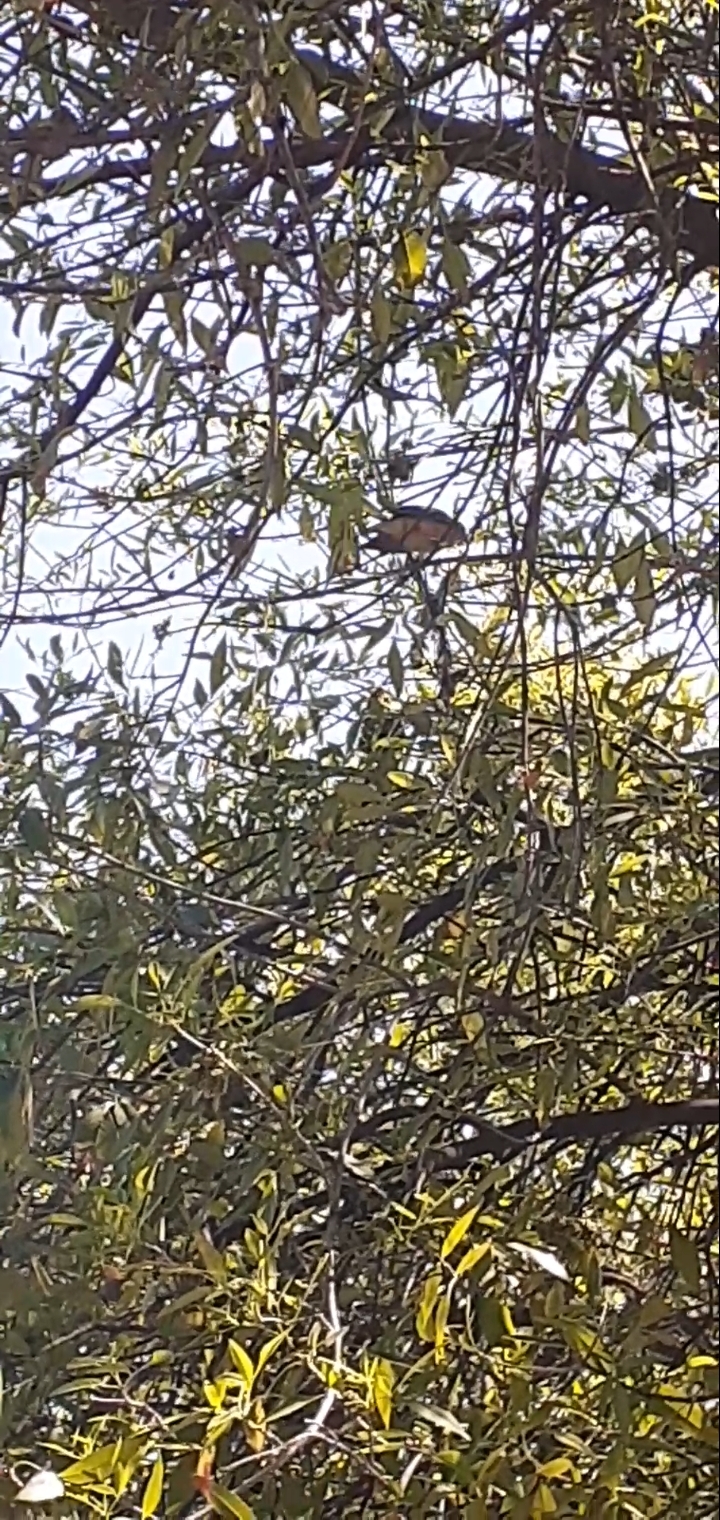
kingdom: Animalia
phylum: Chordata
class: Aves
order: Passeriformes
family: Turdidae
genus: Turdus
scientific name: Turdus grayi
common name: Clay-colored thrush
